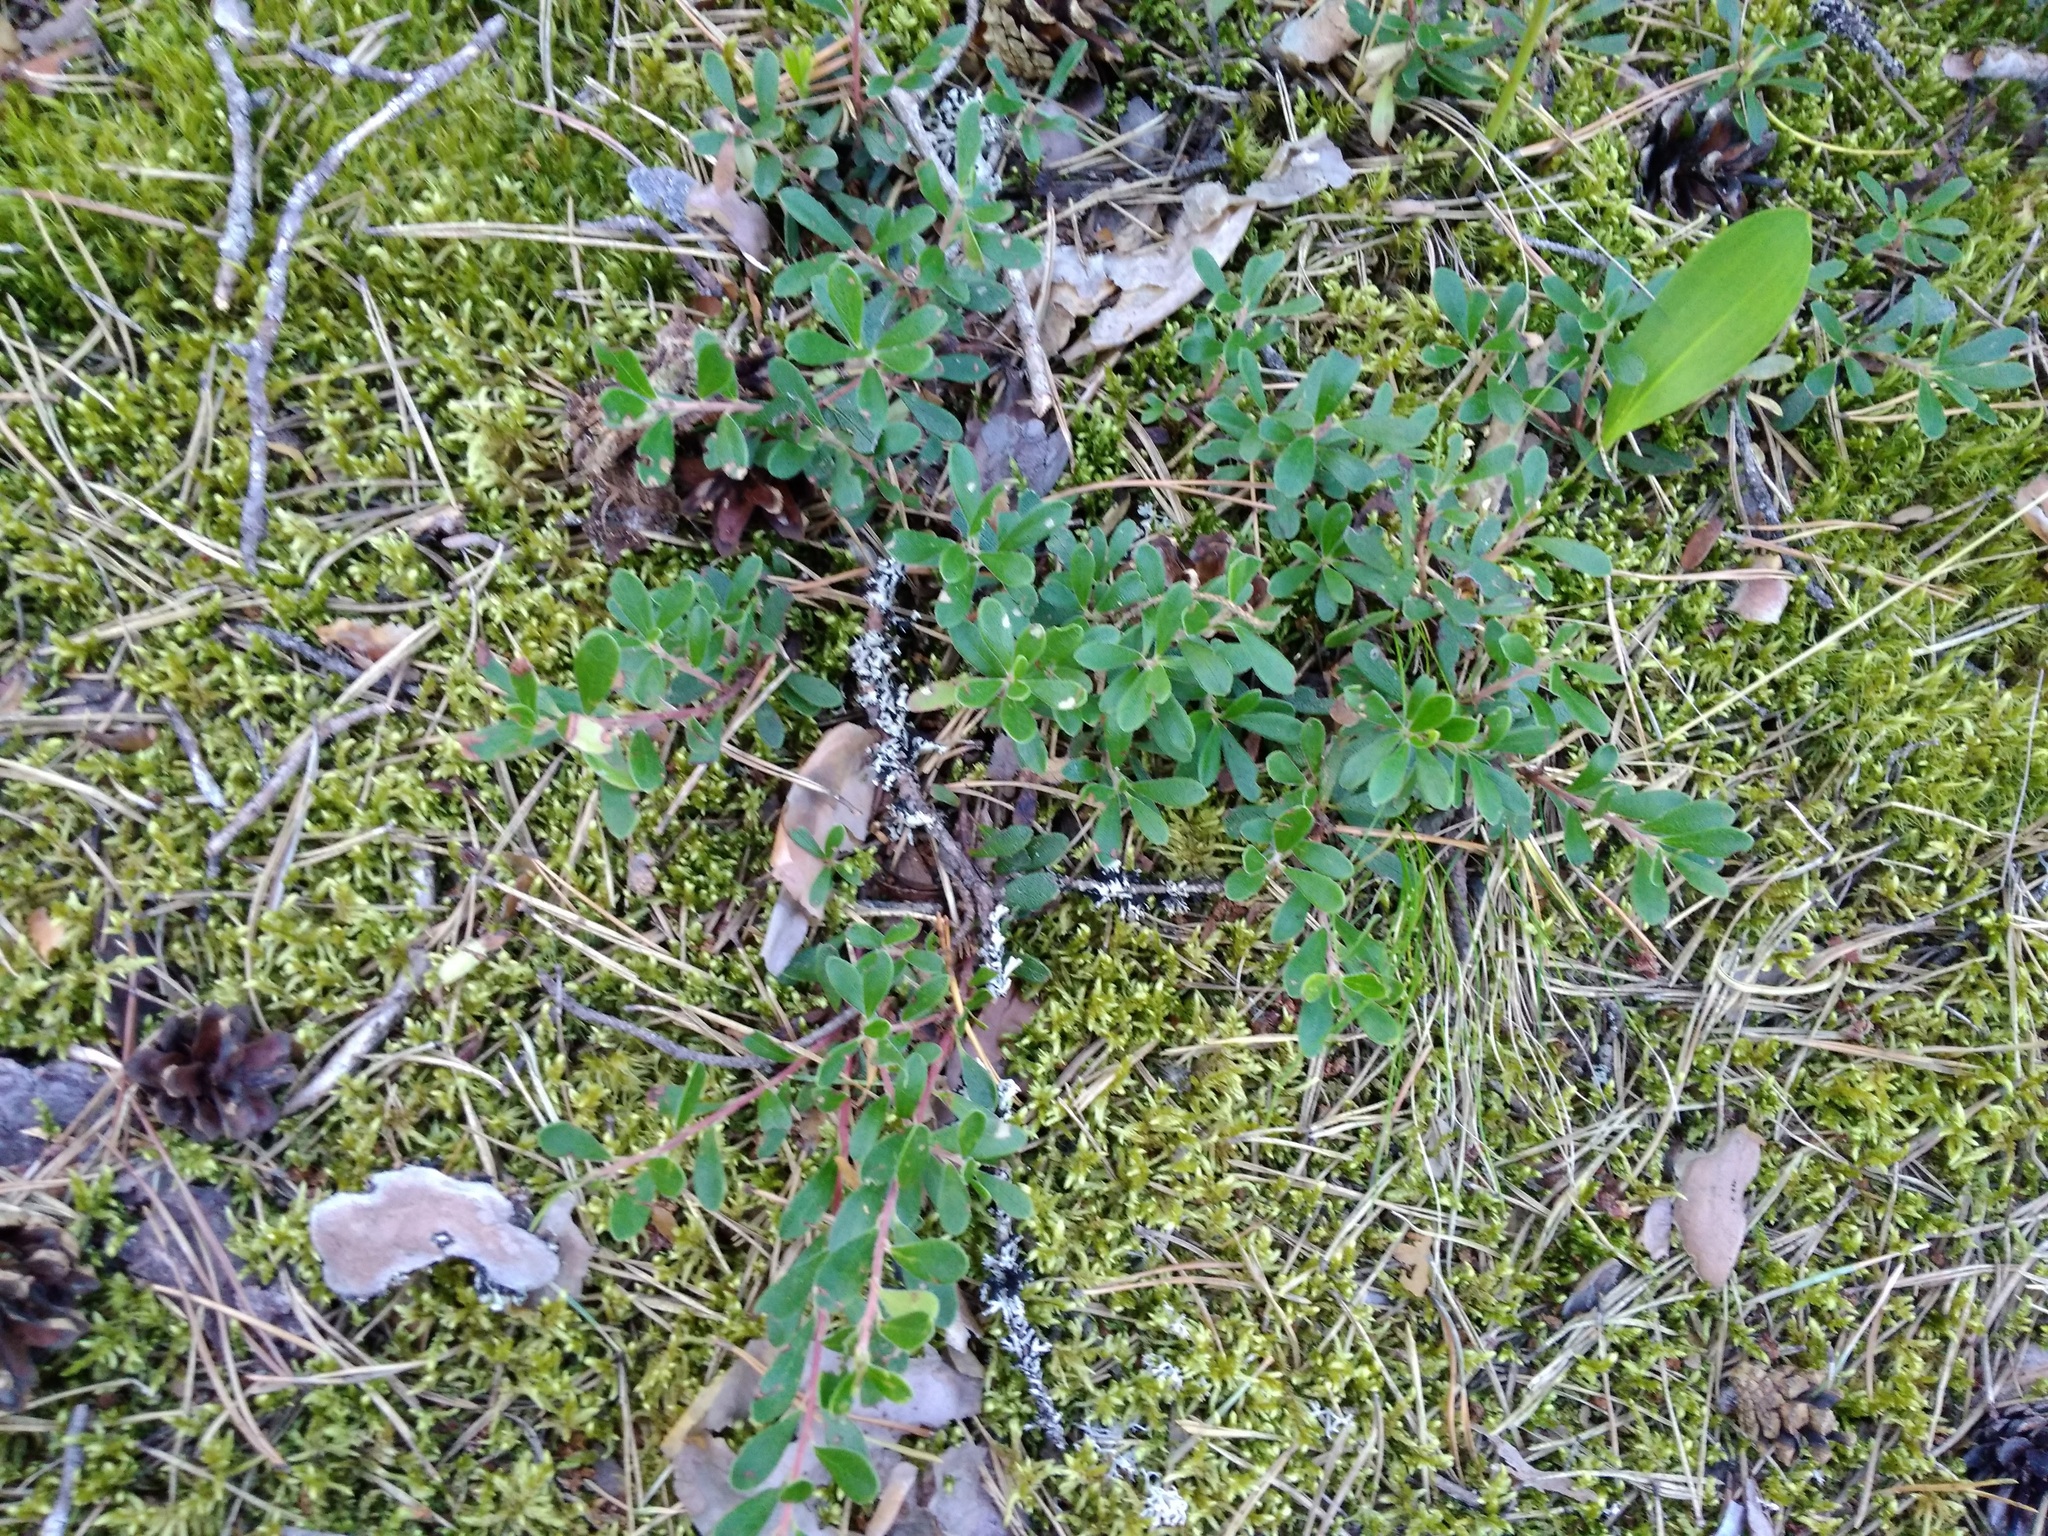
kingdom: Plantae
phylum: Tracheophyta
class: Magnoliopsida
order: Ericales
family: Ericaceae
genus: Arctostaphylos
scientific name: Arctostaphylos uva-ursi
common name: Bearberry
